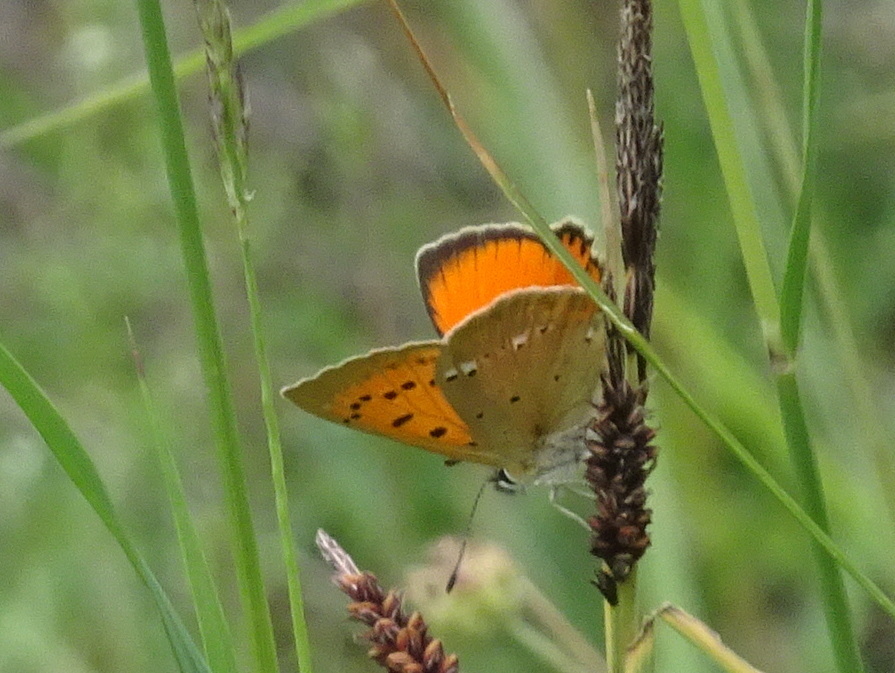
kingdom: Animalia
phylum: Arthropoda
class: Insecta
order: Lepidoptera
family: Lycaenidae
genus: Lycaena
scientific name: Lycaena virgaureae
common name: Scarce copper
